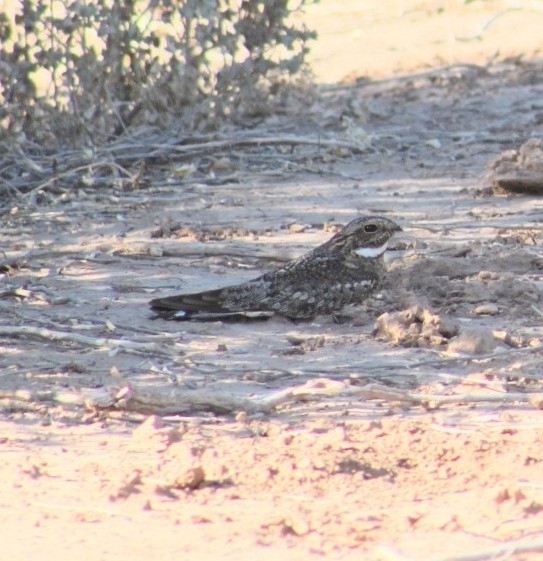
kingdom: Animalia
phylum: Chordata
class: Aves
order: Caprimulgiformes
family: Caprimulgidae
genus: Chordeiles
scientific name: Chordeiles acutipennis
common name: Lesser nighthawk
